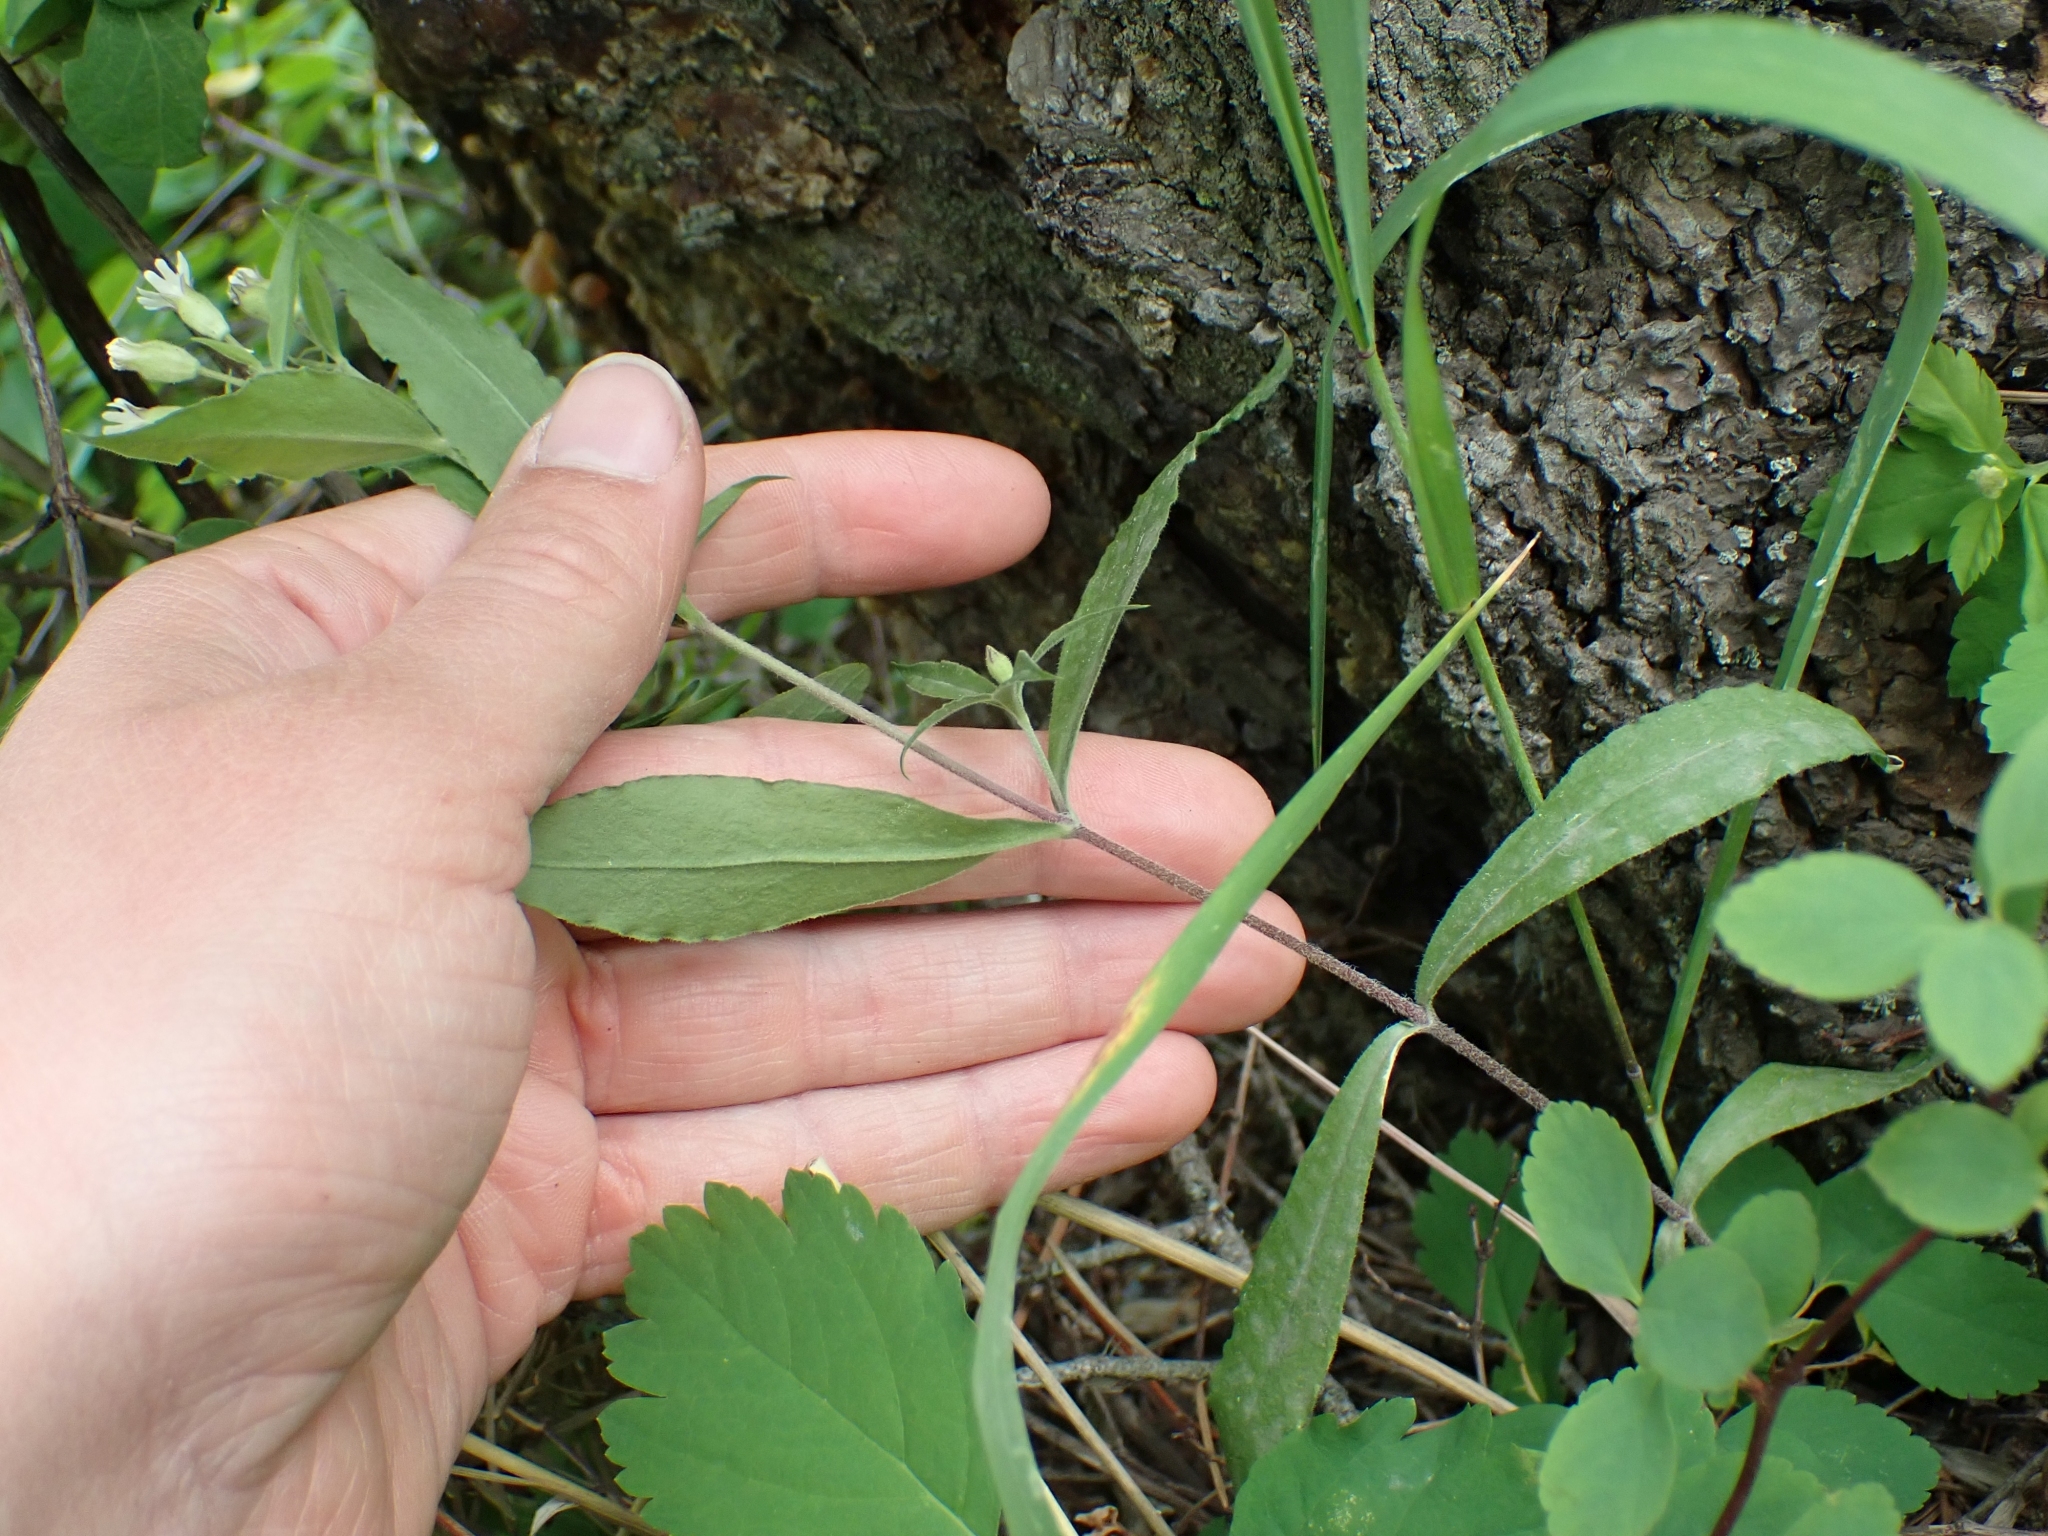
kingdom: Plantae
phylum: Tracheophyta
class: Magnoliopsida
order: Caryophyllales
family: Caryophyllaceae
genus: Silene
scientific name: Silene menziesii
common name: Menzies's catchfly
